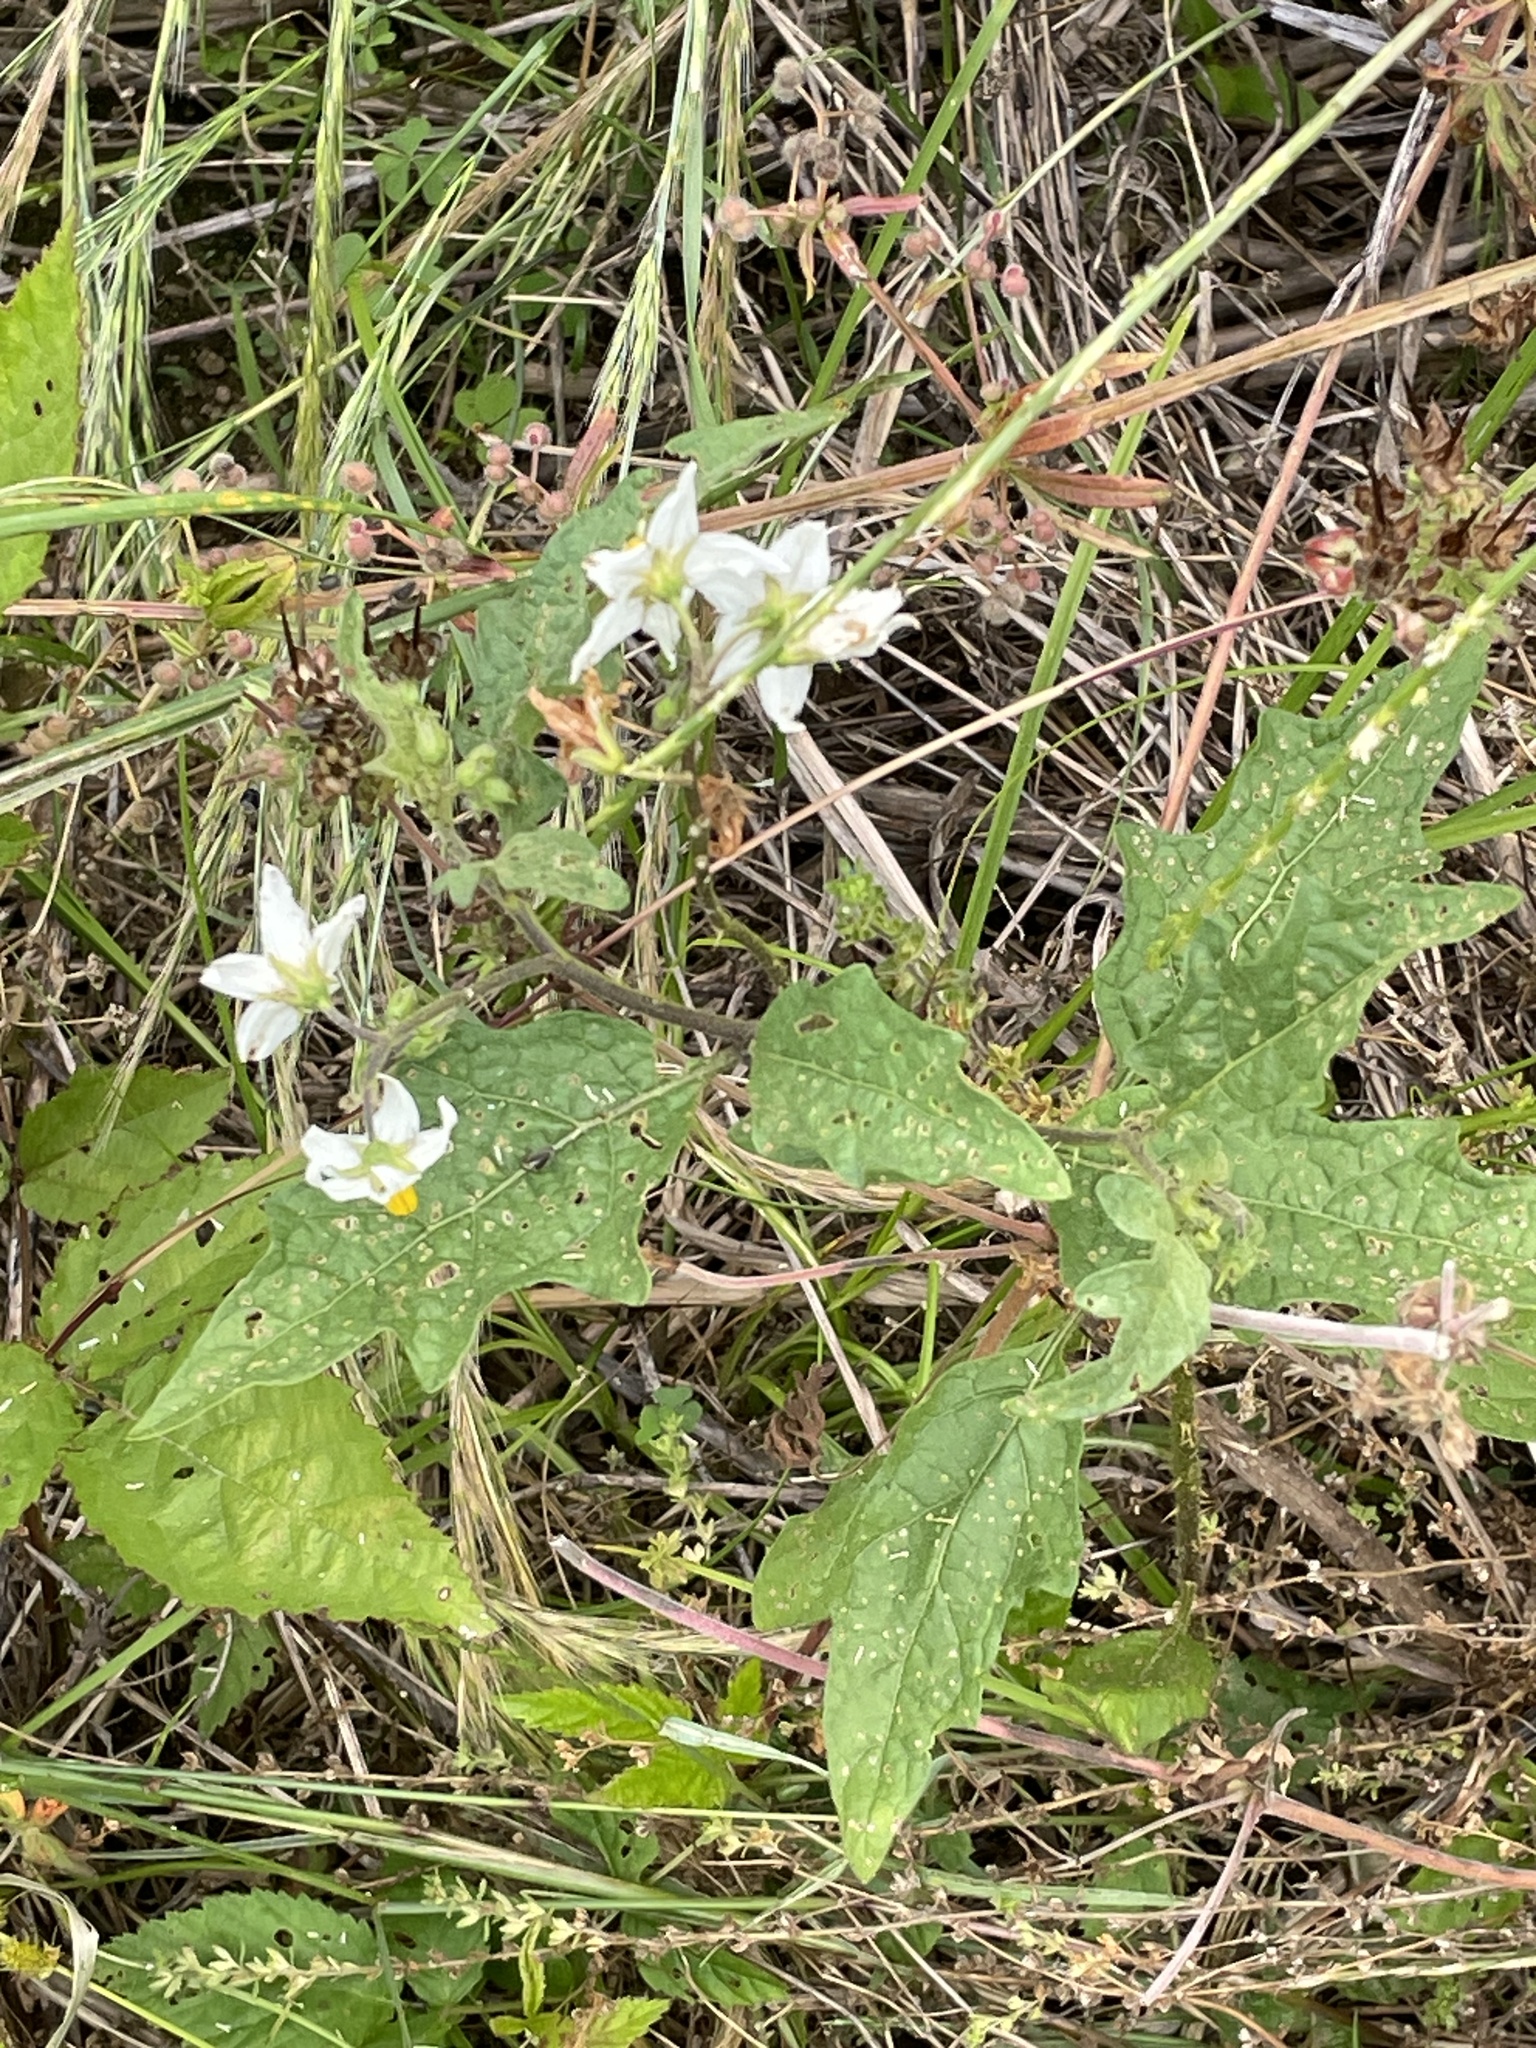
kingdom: Plantae
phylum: Tracheophyta
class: Magnoliopsida
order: Solanales
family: Solanaceae
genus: Solanum
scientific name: Solanum carolinense
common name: Horse-nettle
